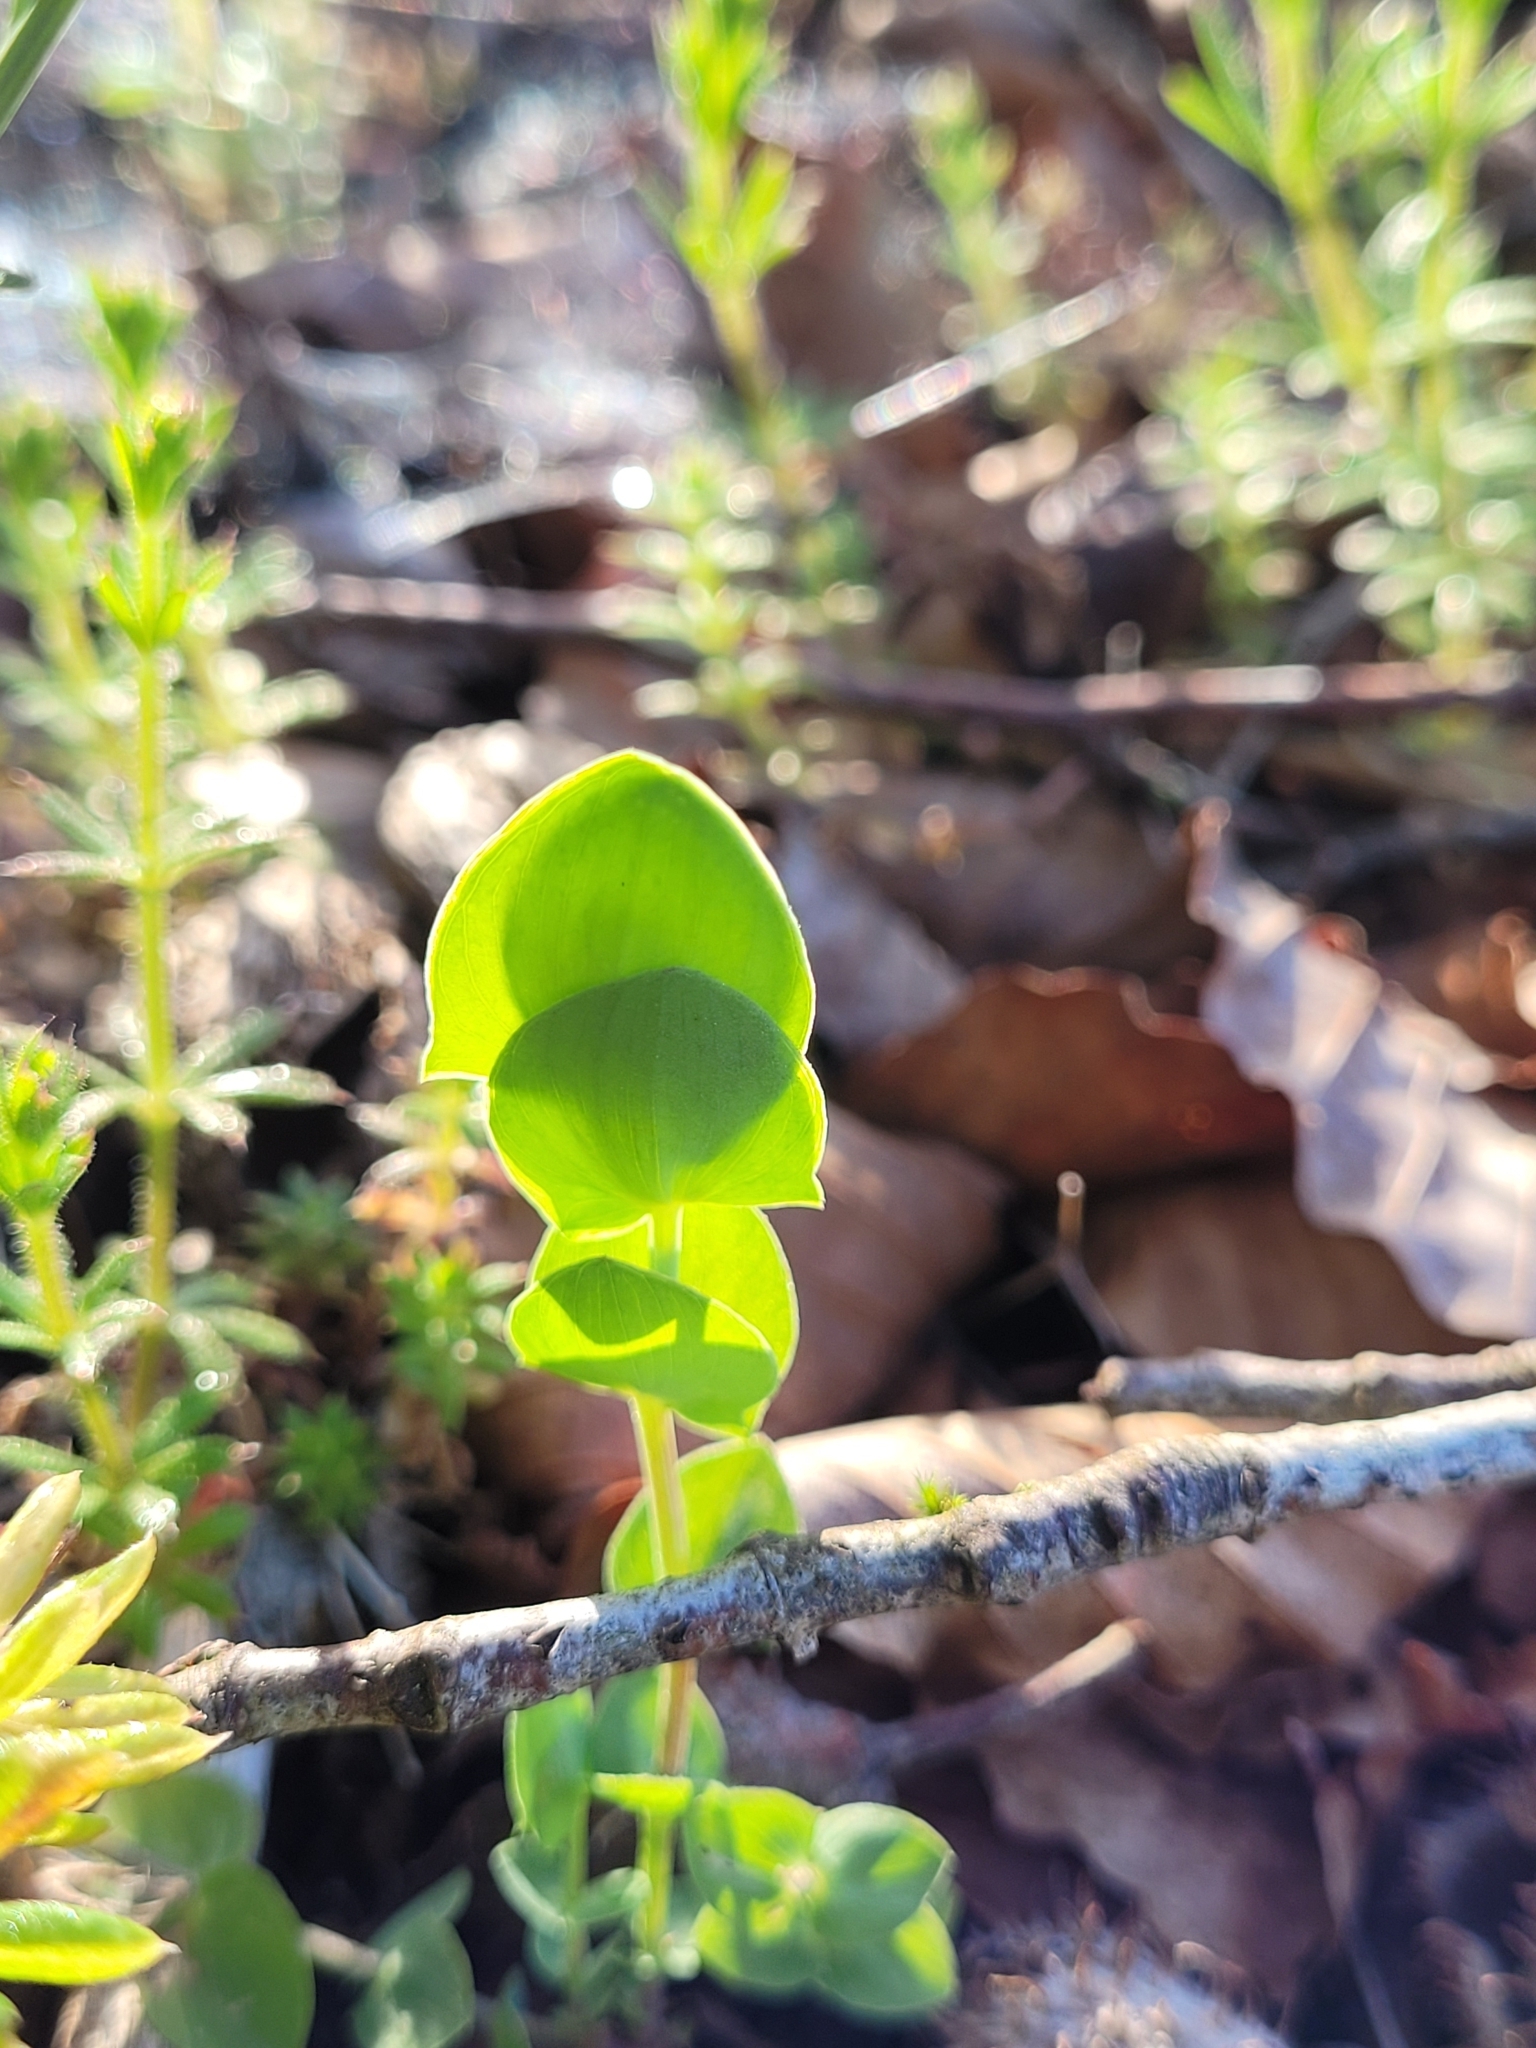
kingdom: Plantae
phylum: Tracheophyta
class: Magnoliopsida
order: Fabales
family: Fabaceae
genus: Lathyrus
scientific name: Lathyrus aphaca
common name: Yellow vetchling
